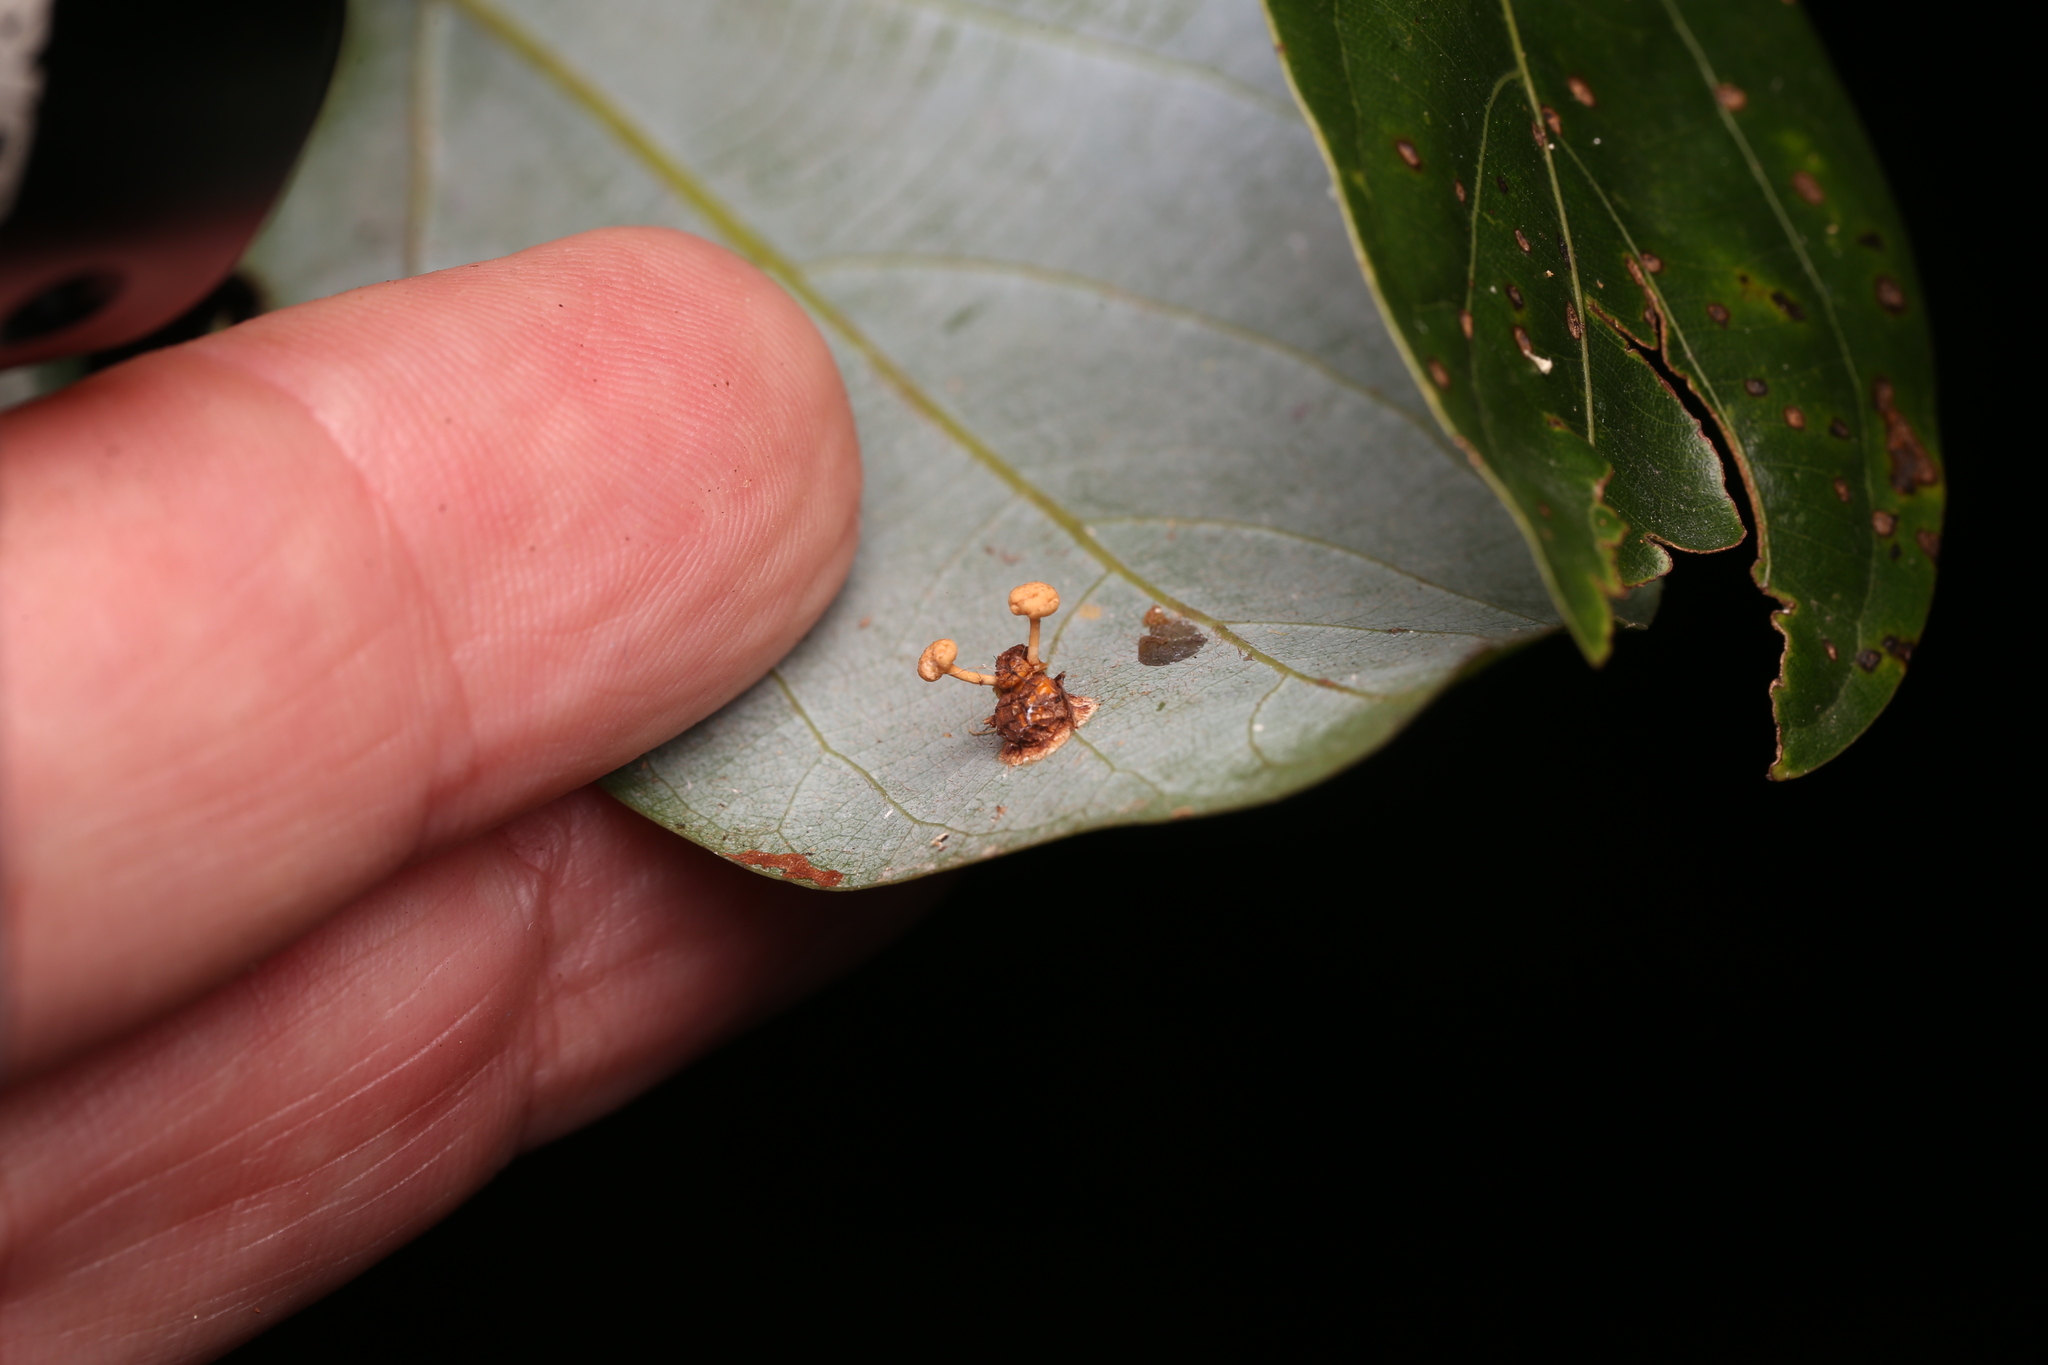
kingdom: Fungi
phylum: Ascomycota
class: Sordariomycetes
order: Hypocreales
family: Ophiocordycipitaceae
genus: Ophiocordyceps
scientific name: Ophiocordyceps dipterigena
